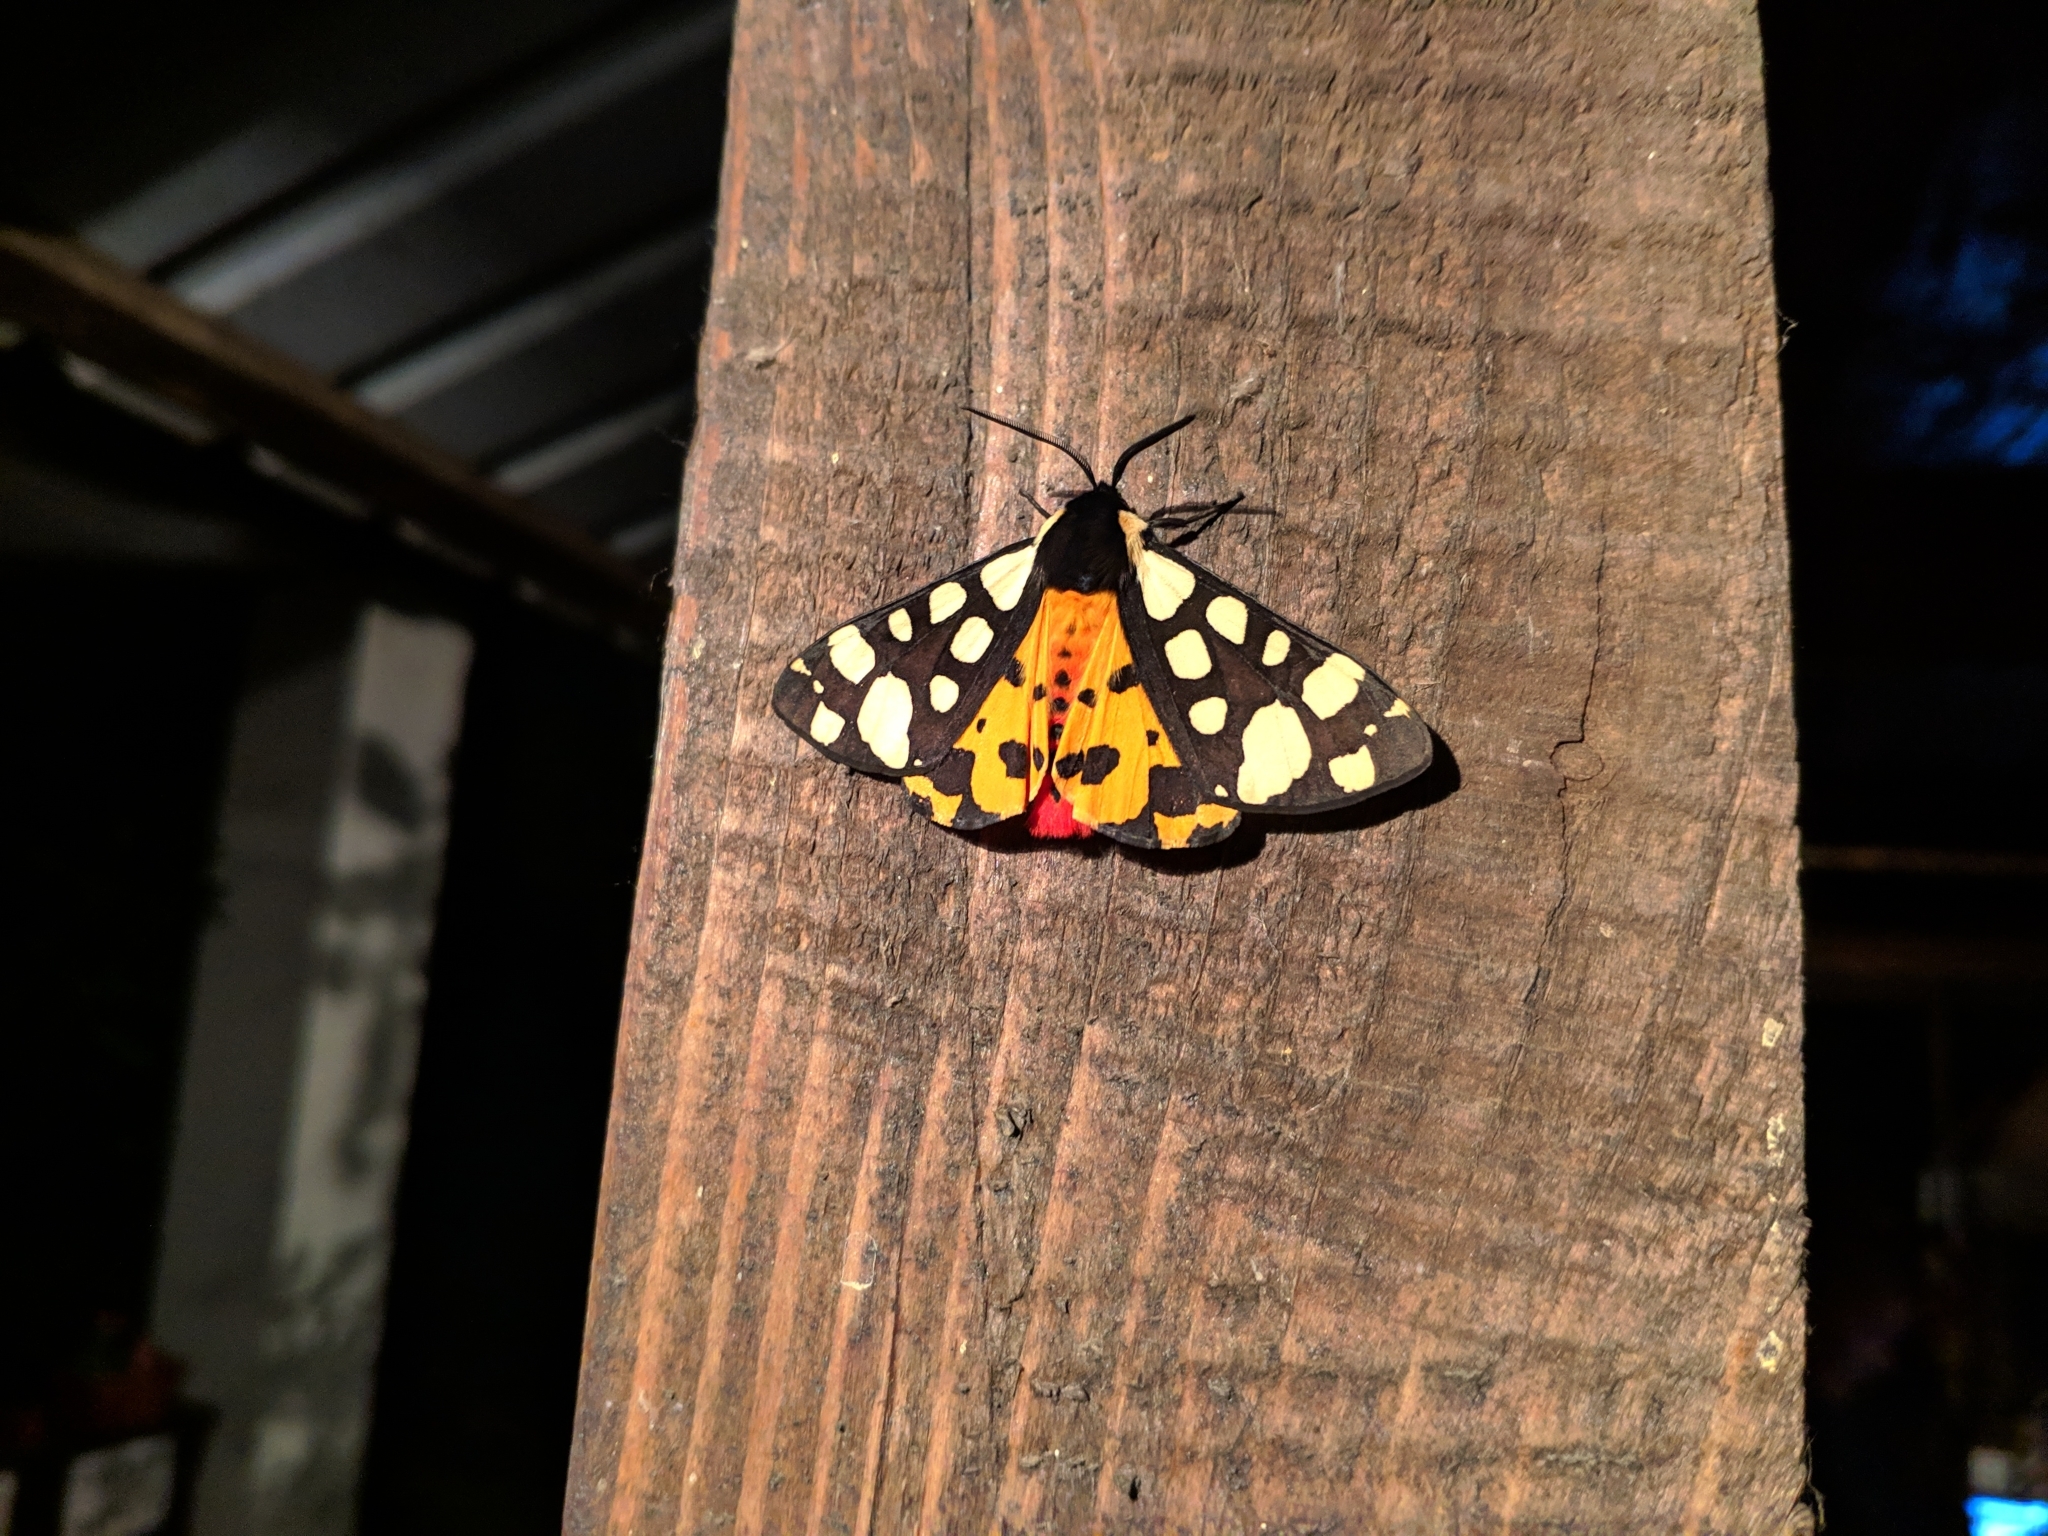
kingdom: Animalia
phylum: Arthropoda
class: Insecta
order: Lepidoptera
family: Erebidae
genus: Epicallia
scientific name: Epicallia villica
